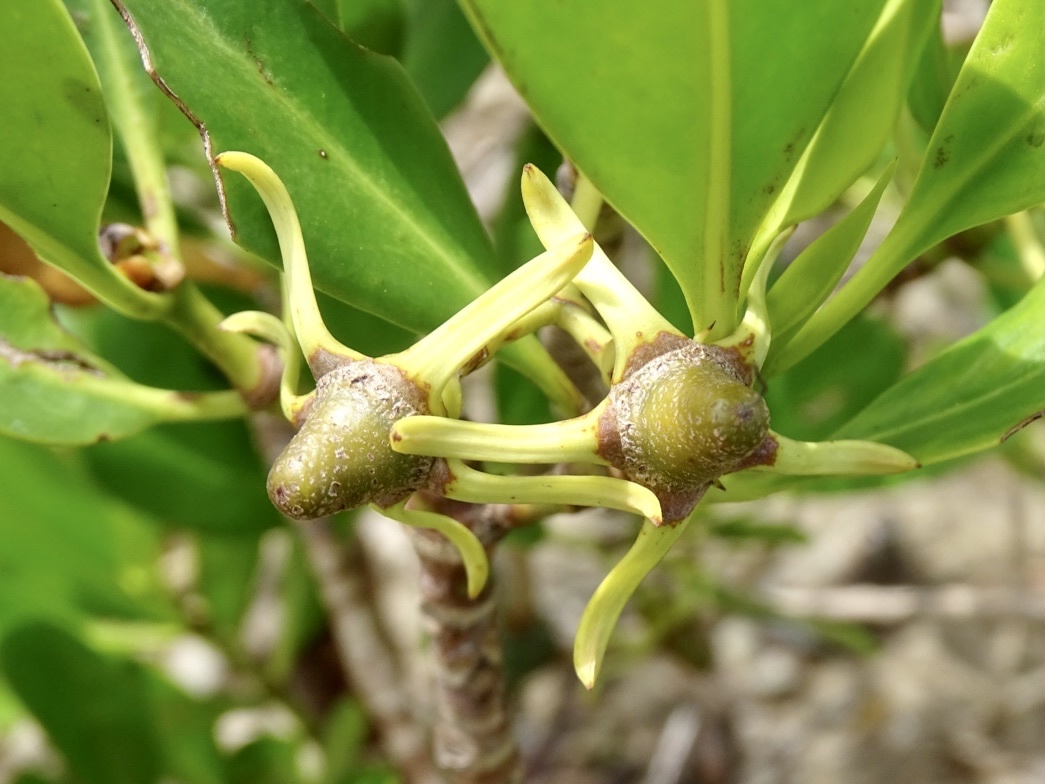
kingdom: Plantae
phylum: Tracheophyta
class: Magnoliopsida
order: Malpighiales
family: Rhizophoraceae
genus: Kandelia
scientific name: Kandelia obovata
